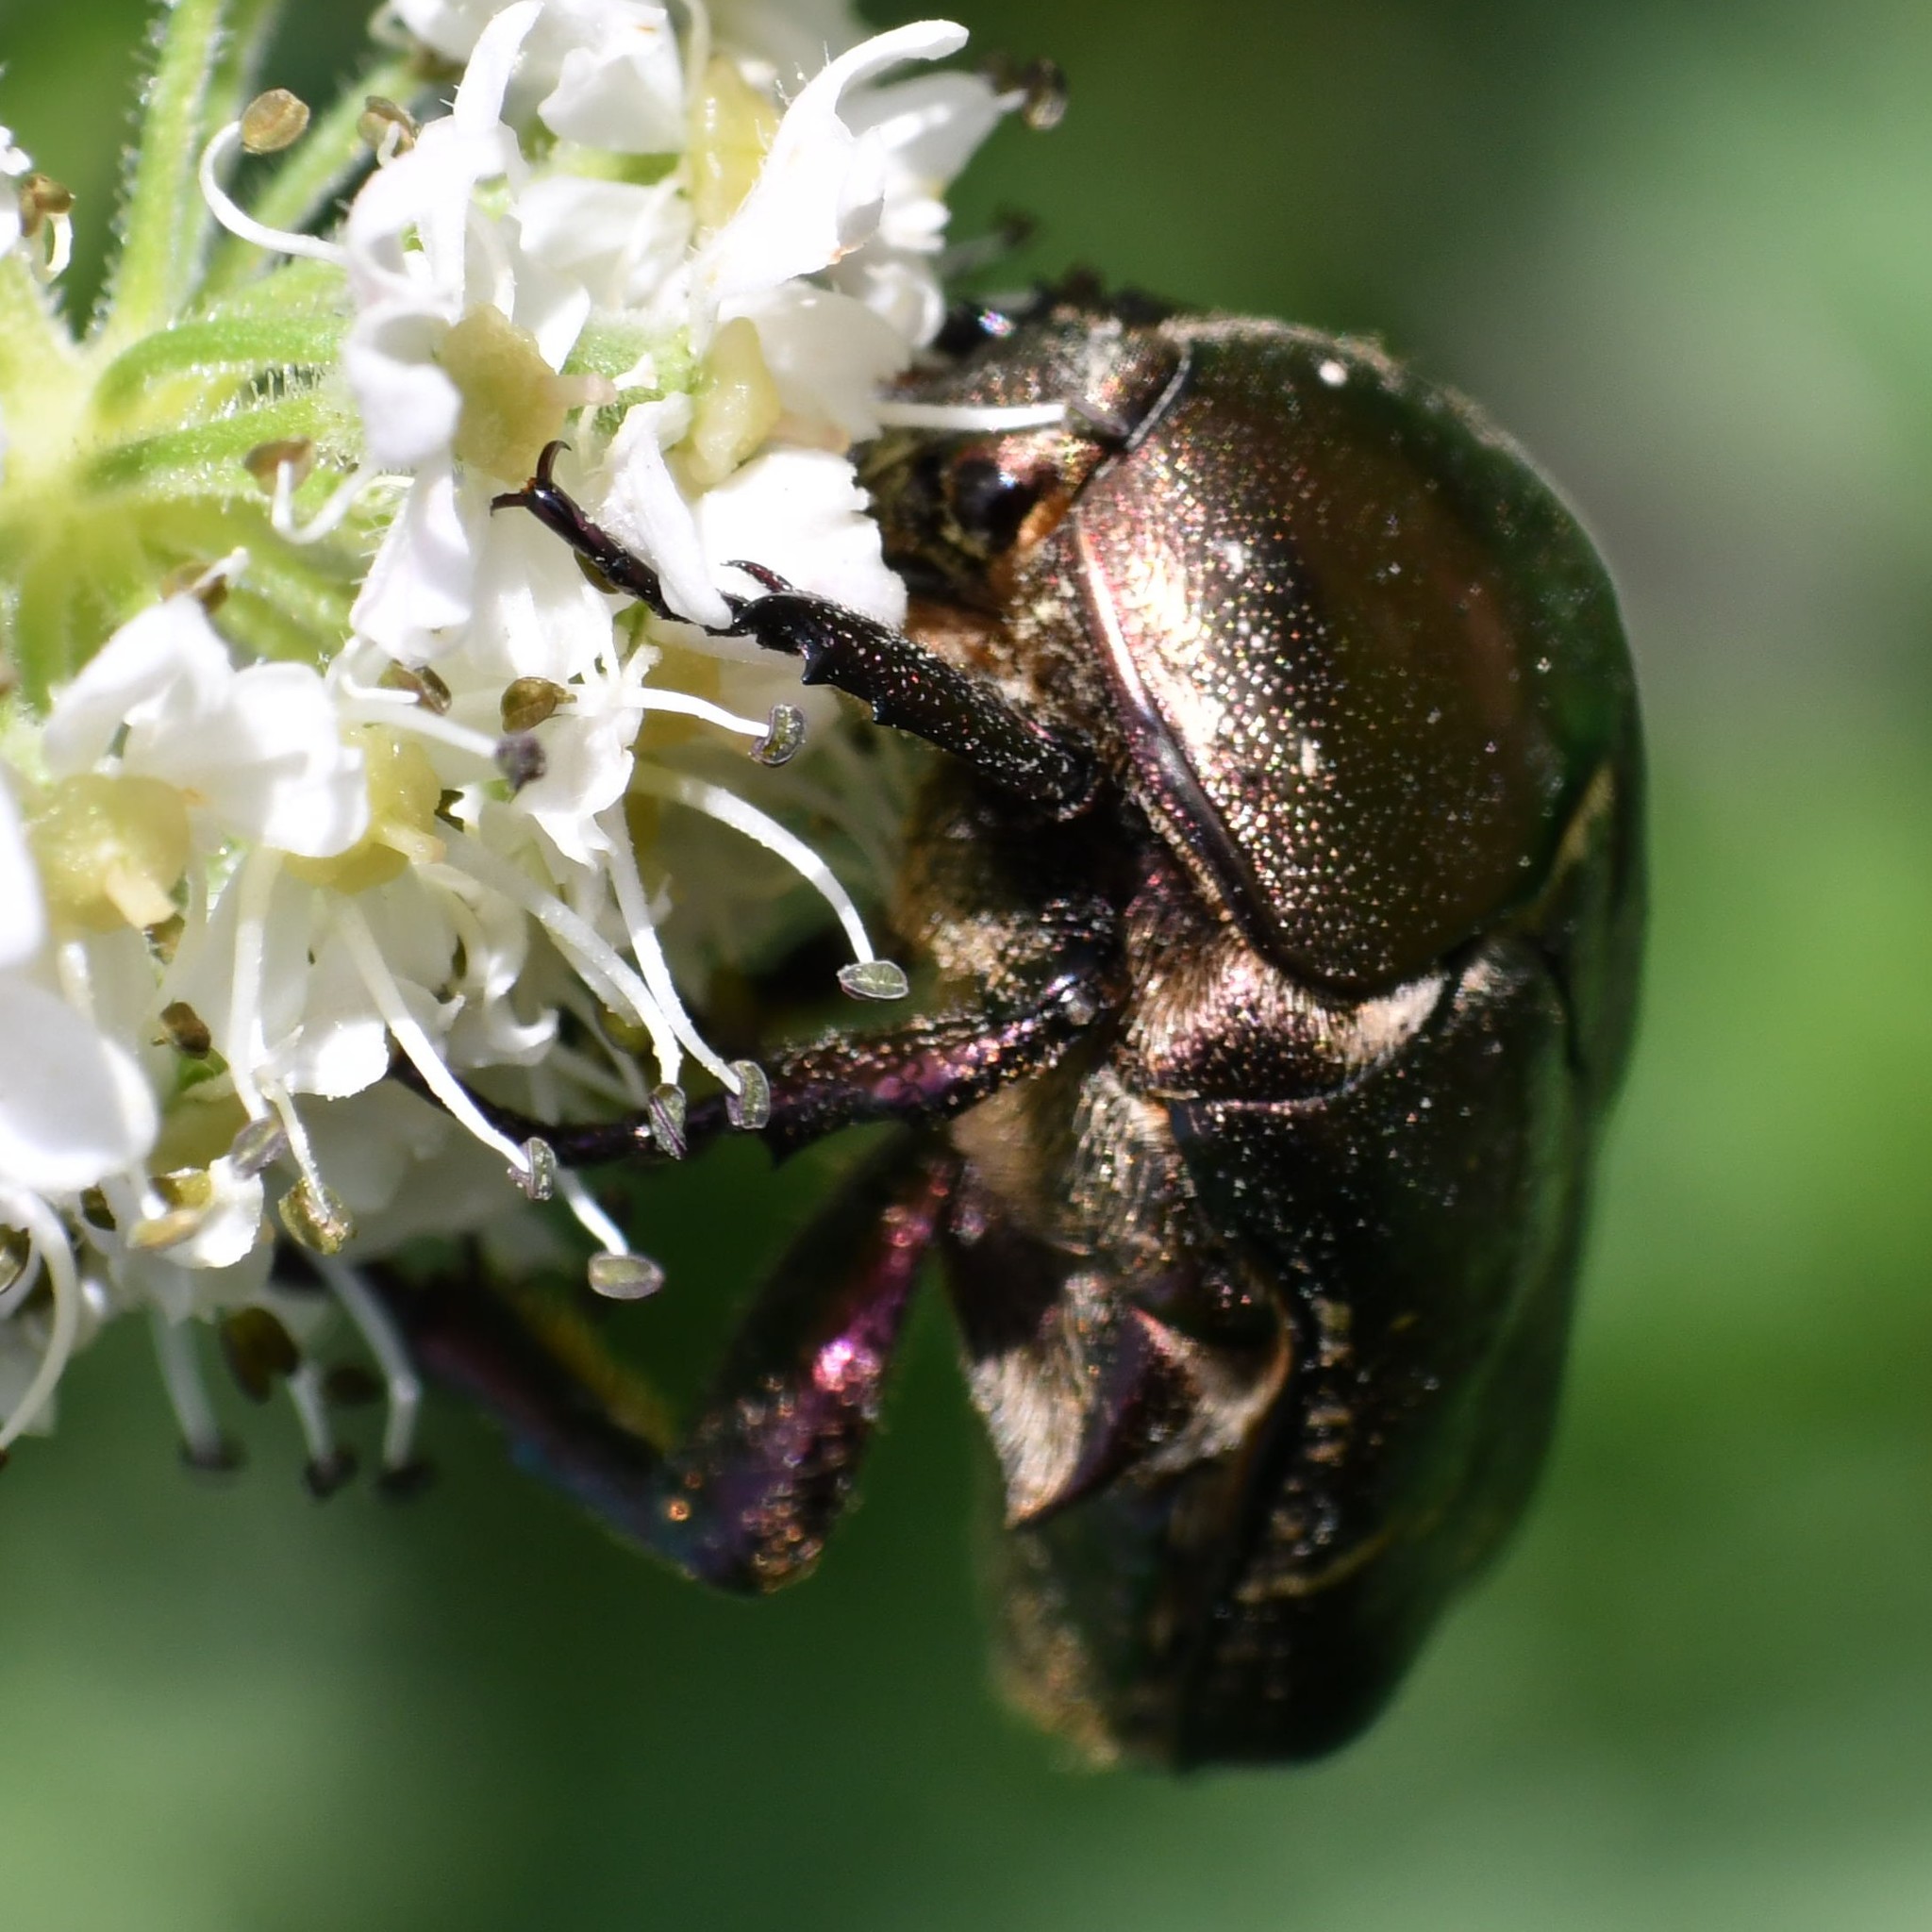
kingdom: Animalia
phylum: Arthropoda
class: Insecta
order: Coleoptera
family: Scarabaeidae
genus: Protaetia
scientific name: Protaetia cuprea
